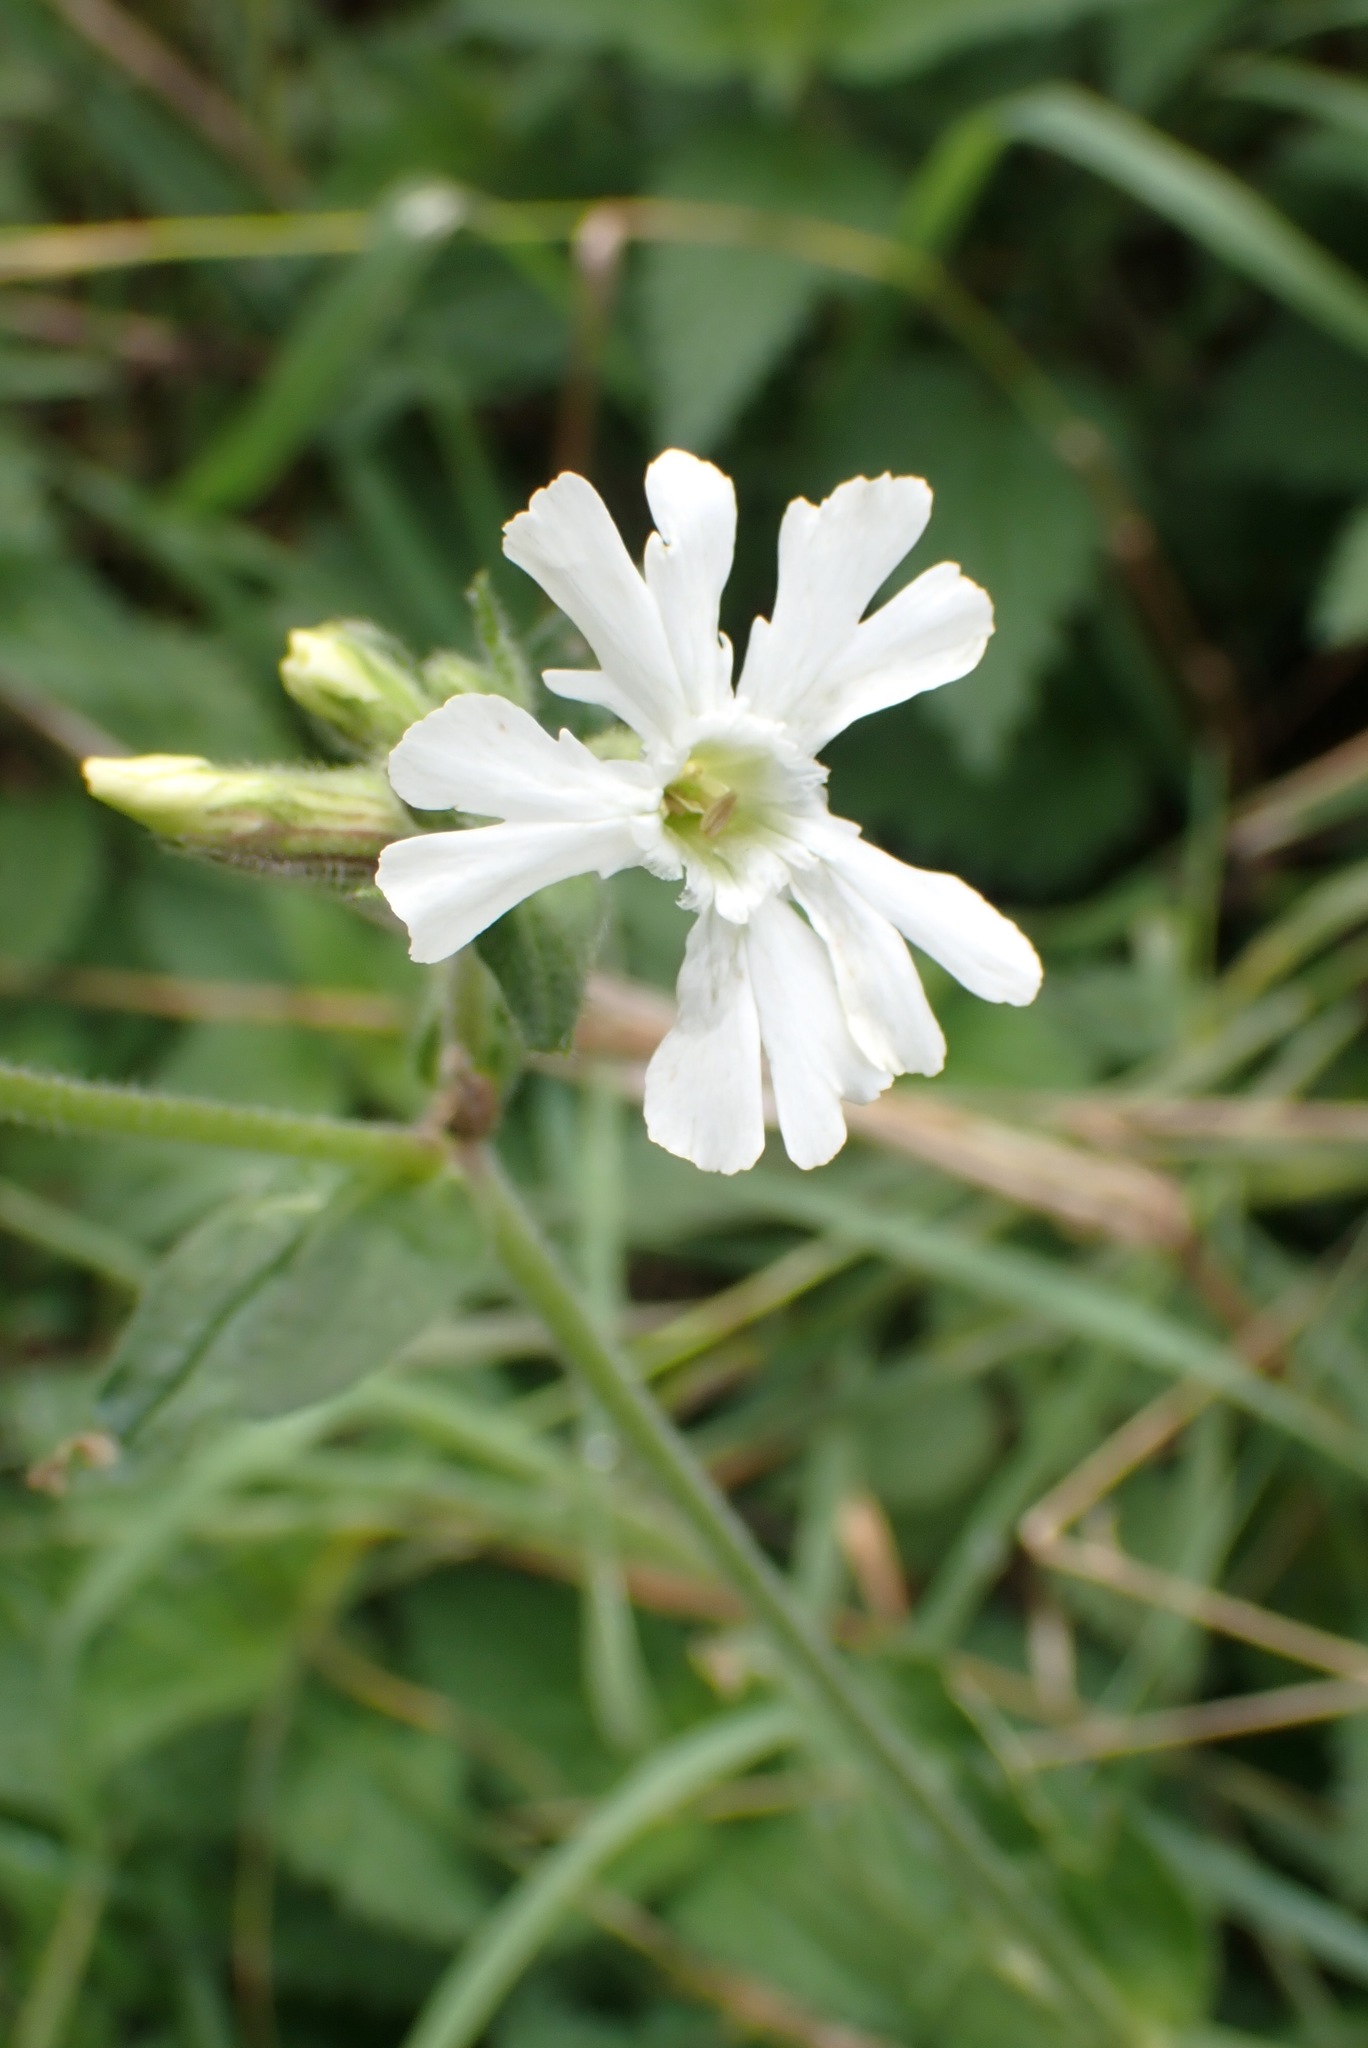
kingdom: Plantae
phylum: Tracheophyta
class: Magnoliopsida
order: Caryophyllales
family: Caryophyllaceae
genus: Silene
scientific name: Silene latifolia
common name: White campion
